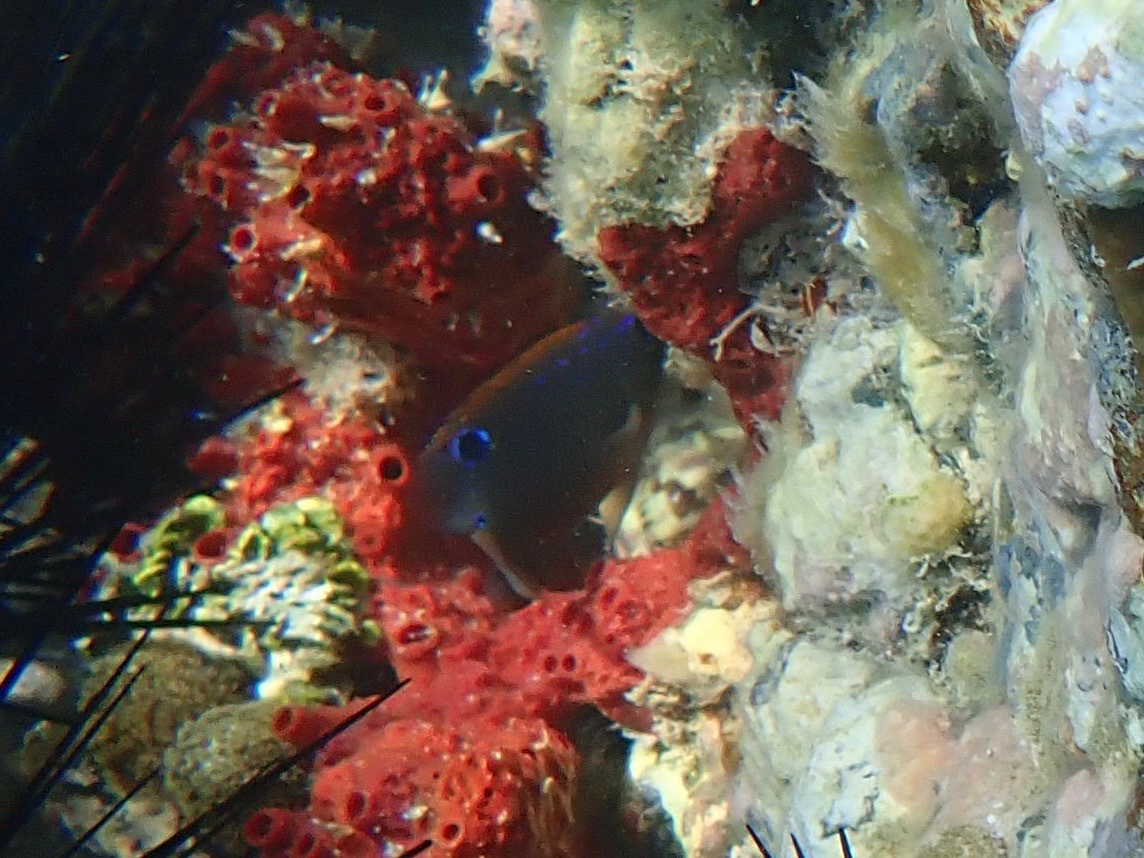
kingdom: Animalia
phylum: Chordata
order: Perciformes
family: Pomacentridae
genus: Stegastes
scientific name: Stegastes adustus
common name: Dusky damselfish
